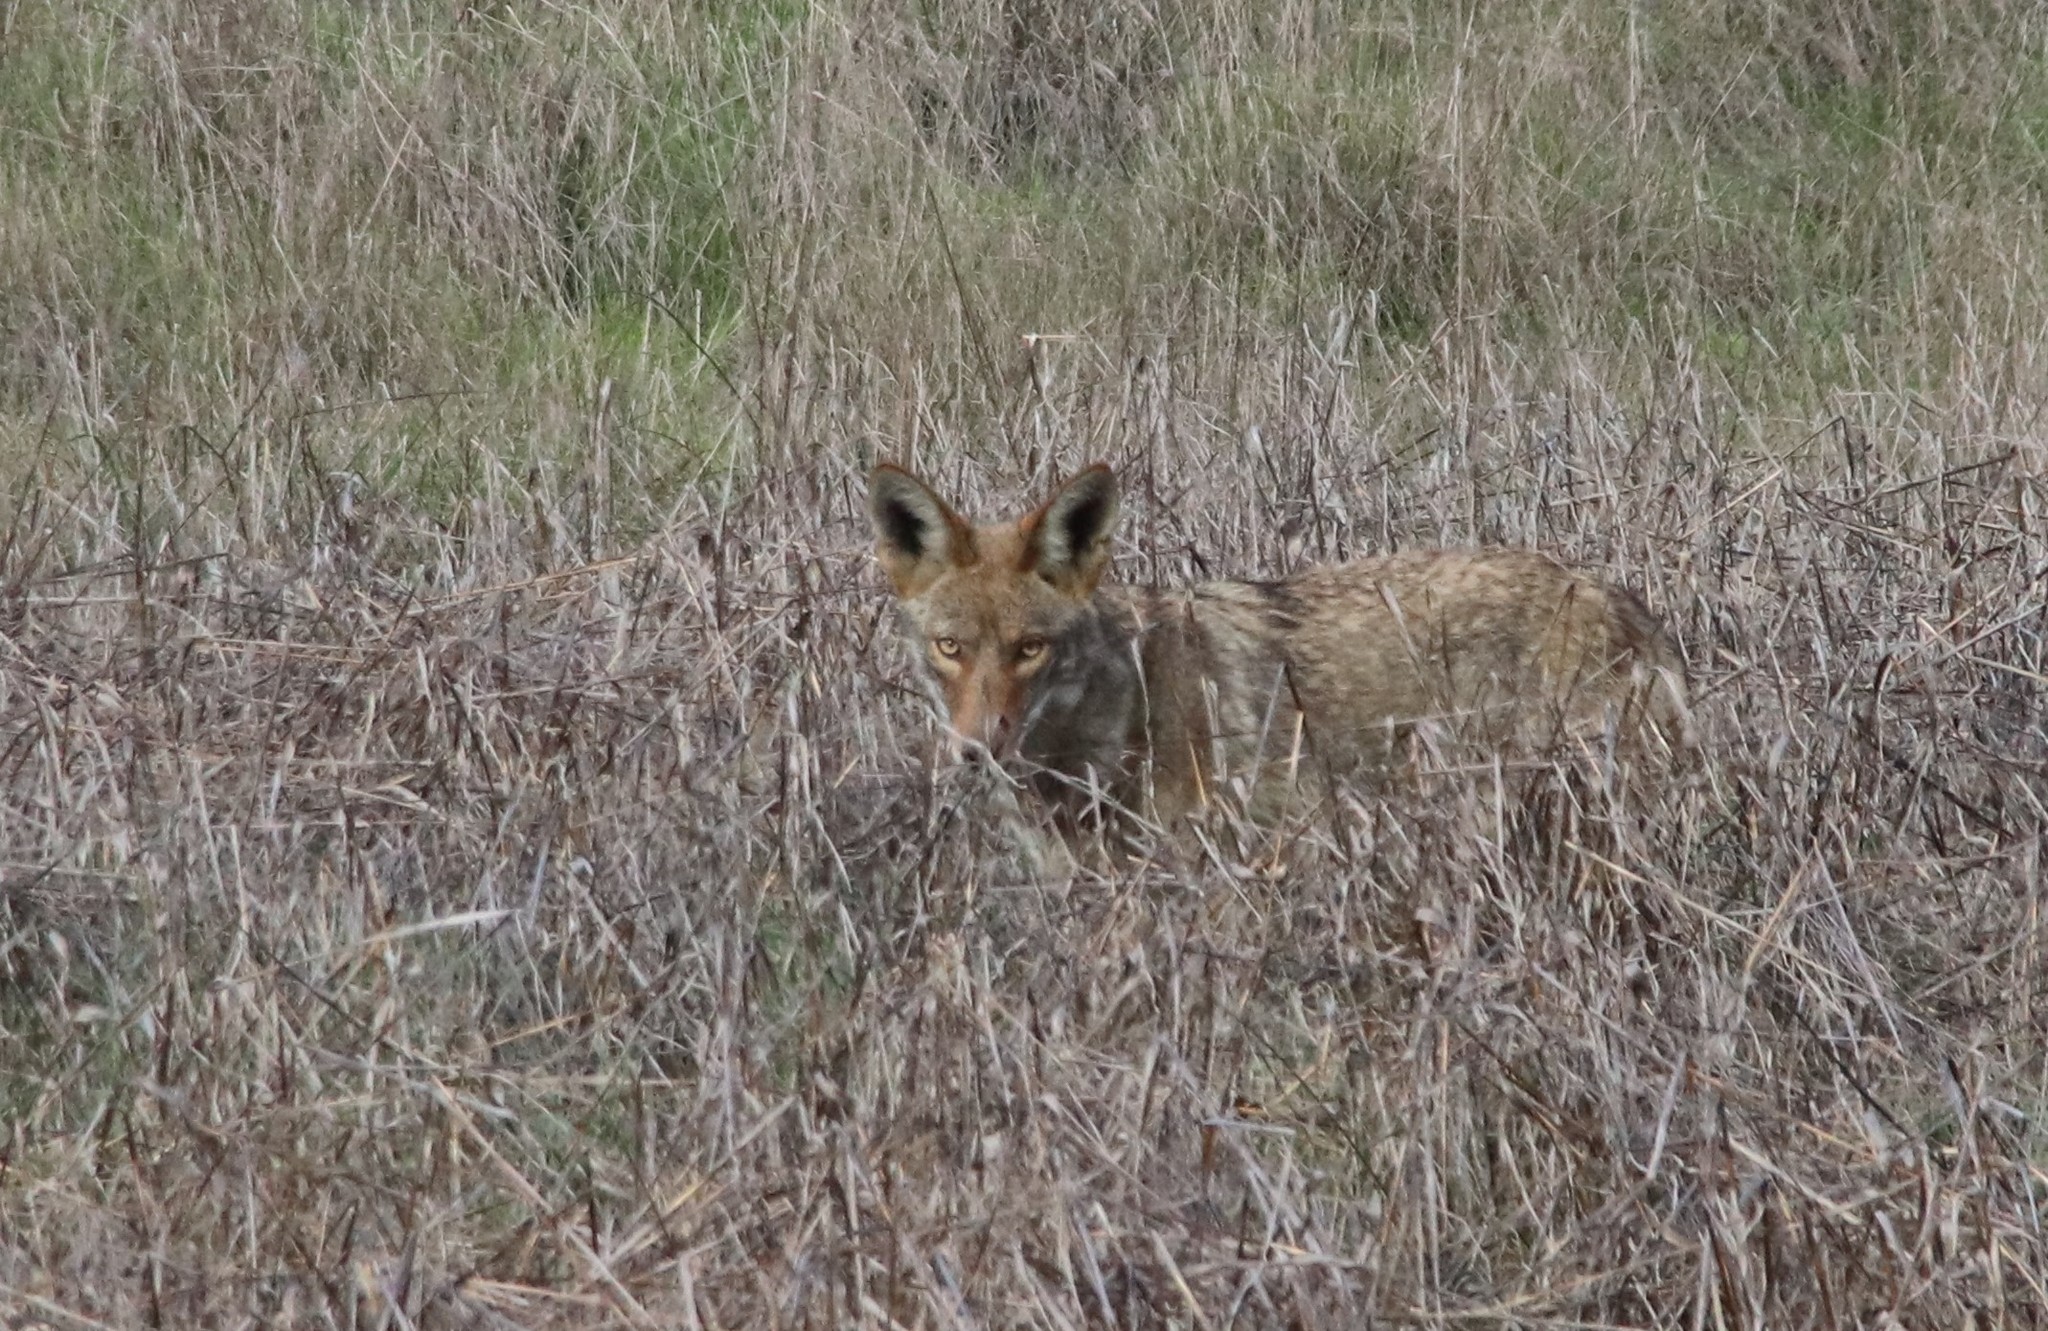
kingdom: Animalia
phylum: Chordata
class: Mammalia
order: Carnivora
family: Canidae
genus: Canis
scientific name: Canis latrans
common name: Coyote
